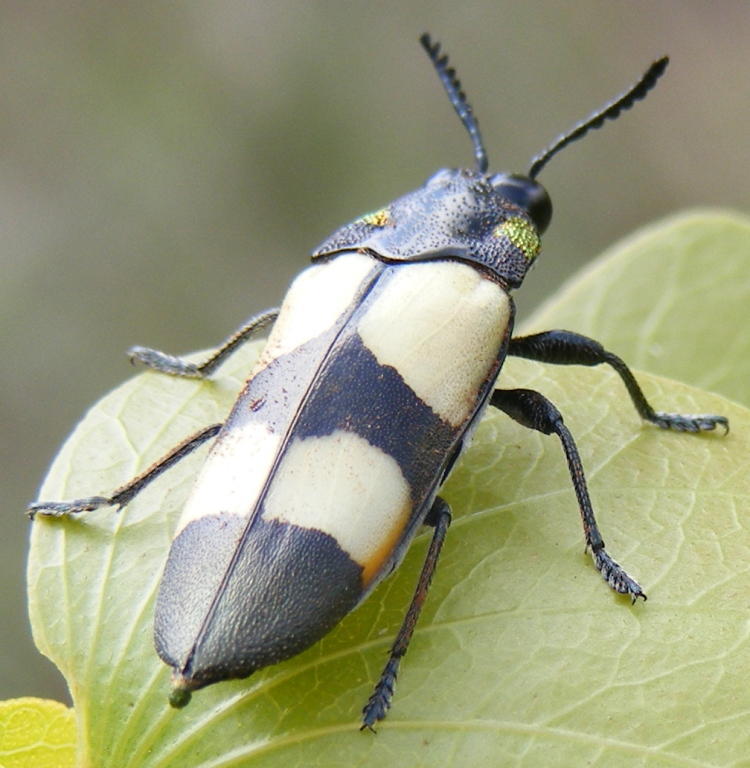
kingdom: Animalia
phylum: Arthropoda
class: Insecta
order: Coleoptera
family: Buprestidae
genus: Agelia
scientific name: Agelia petelii
